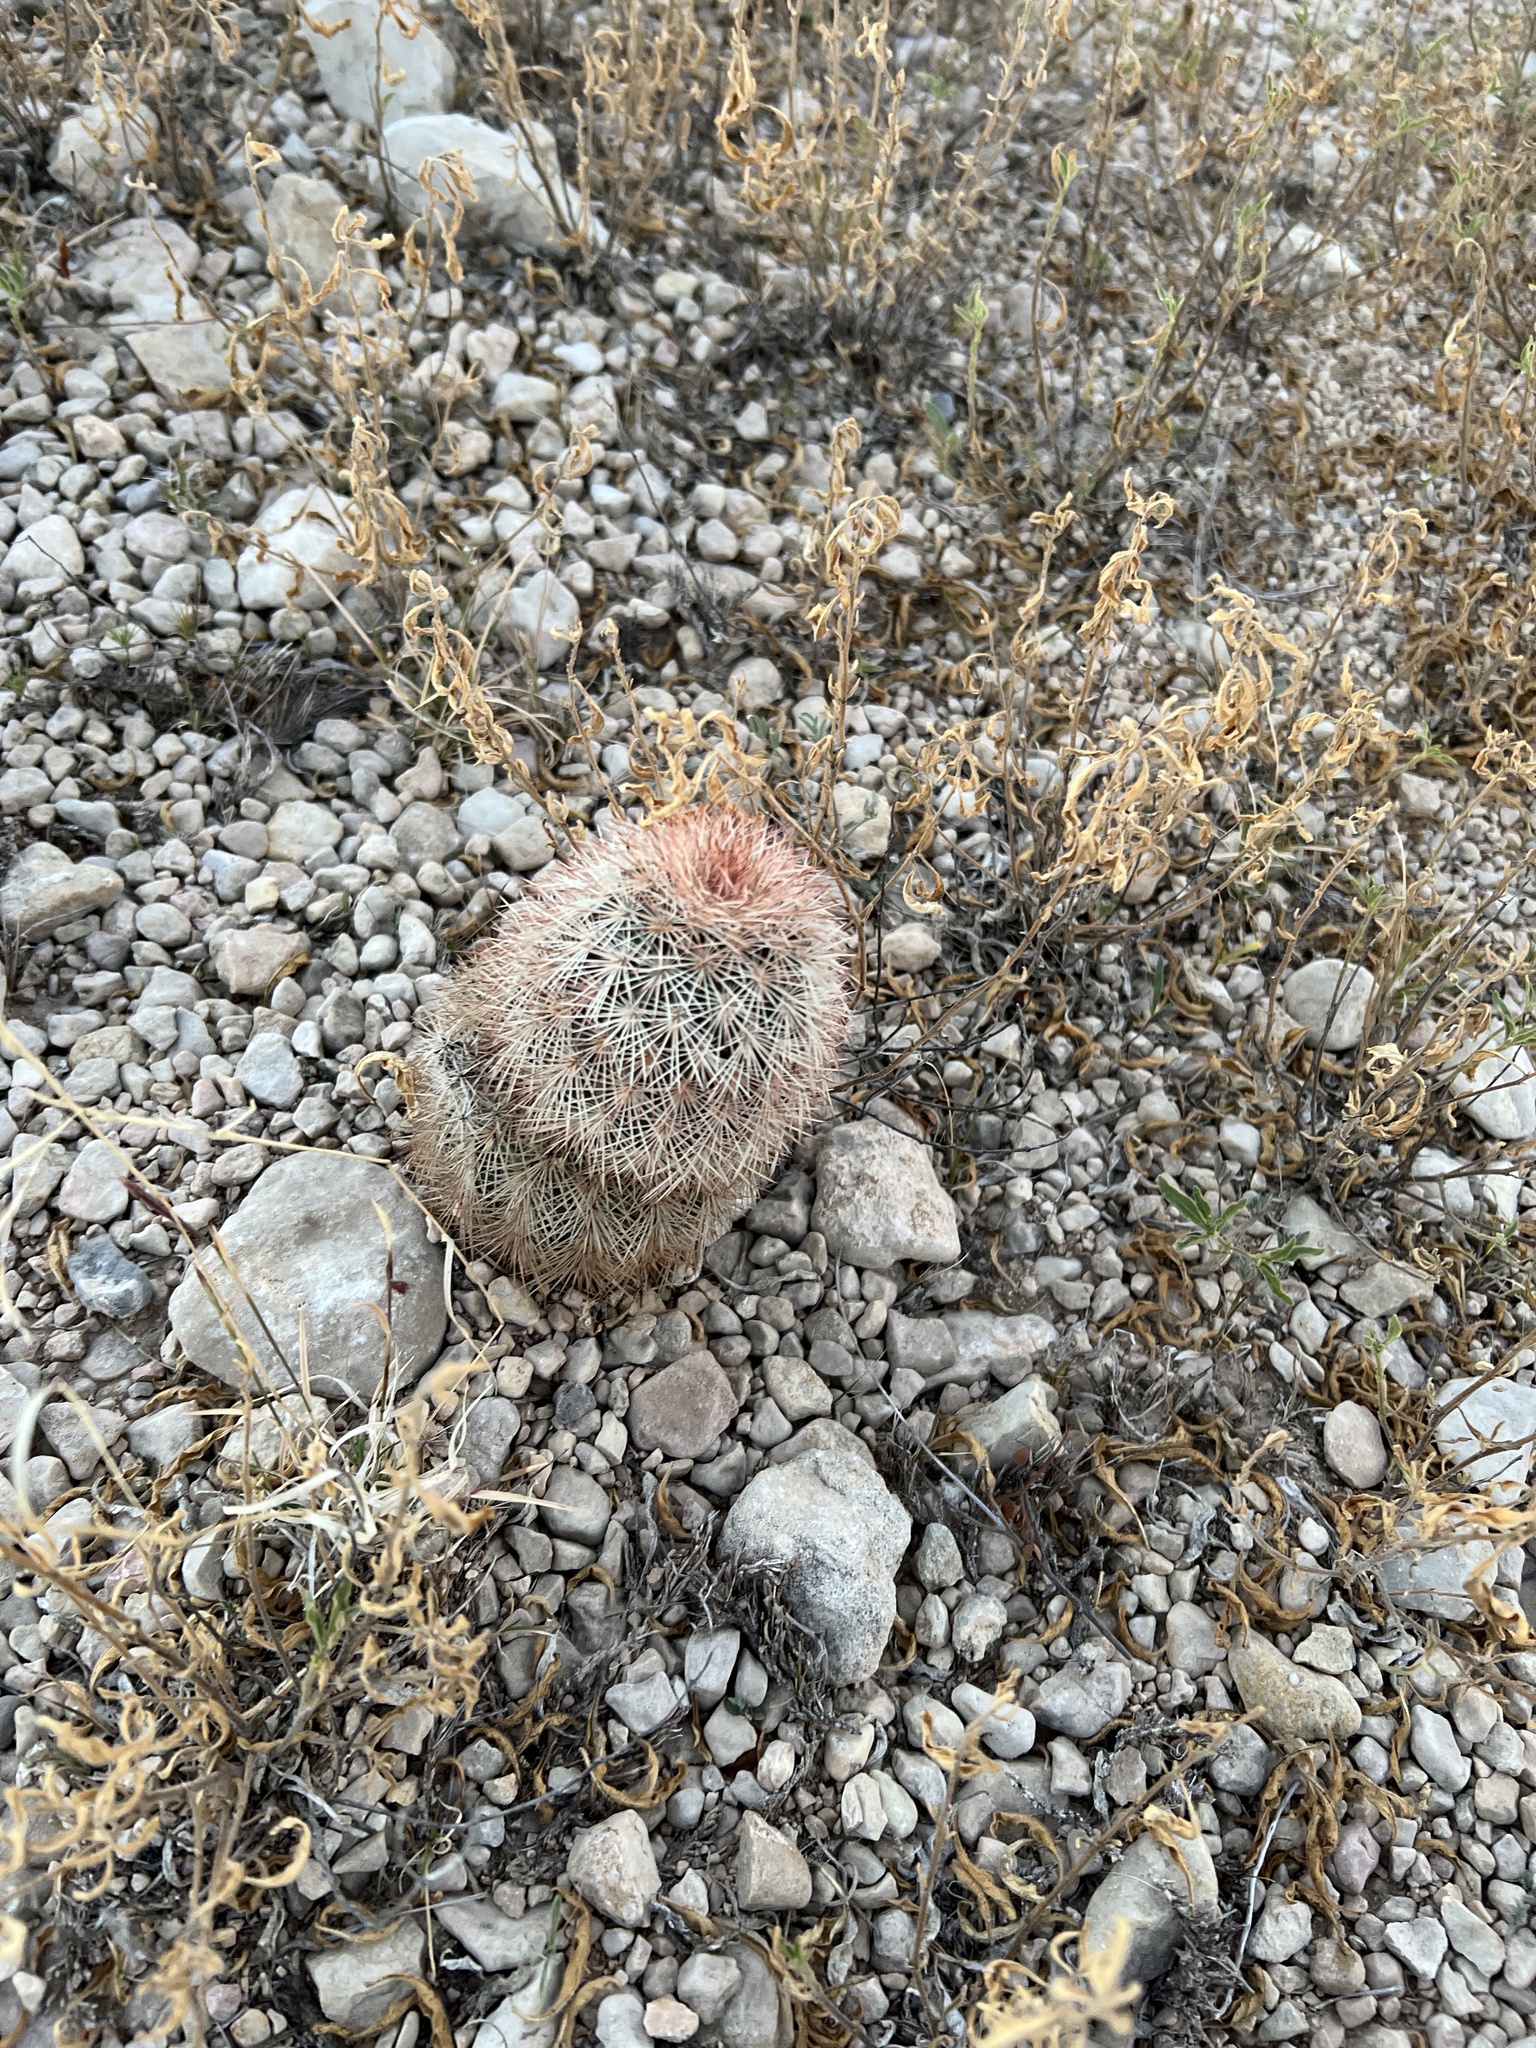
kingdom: Plantae
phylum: Tracheophyta
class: Magnoliopsida
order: Caryophyllales
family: Cactaceae
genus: Echinocereus
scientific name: Echinocereus dasyacanthus
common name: Spiny hedgehog cactus
